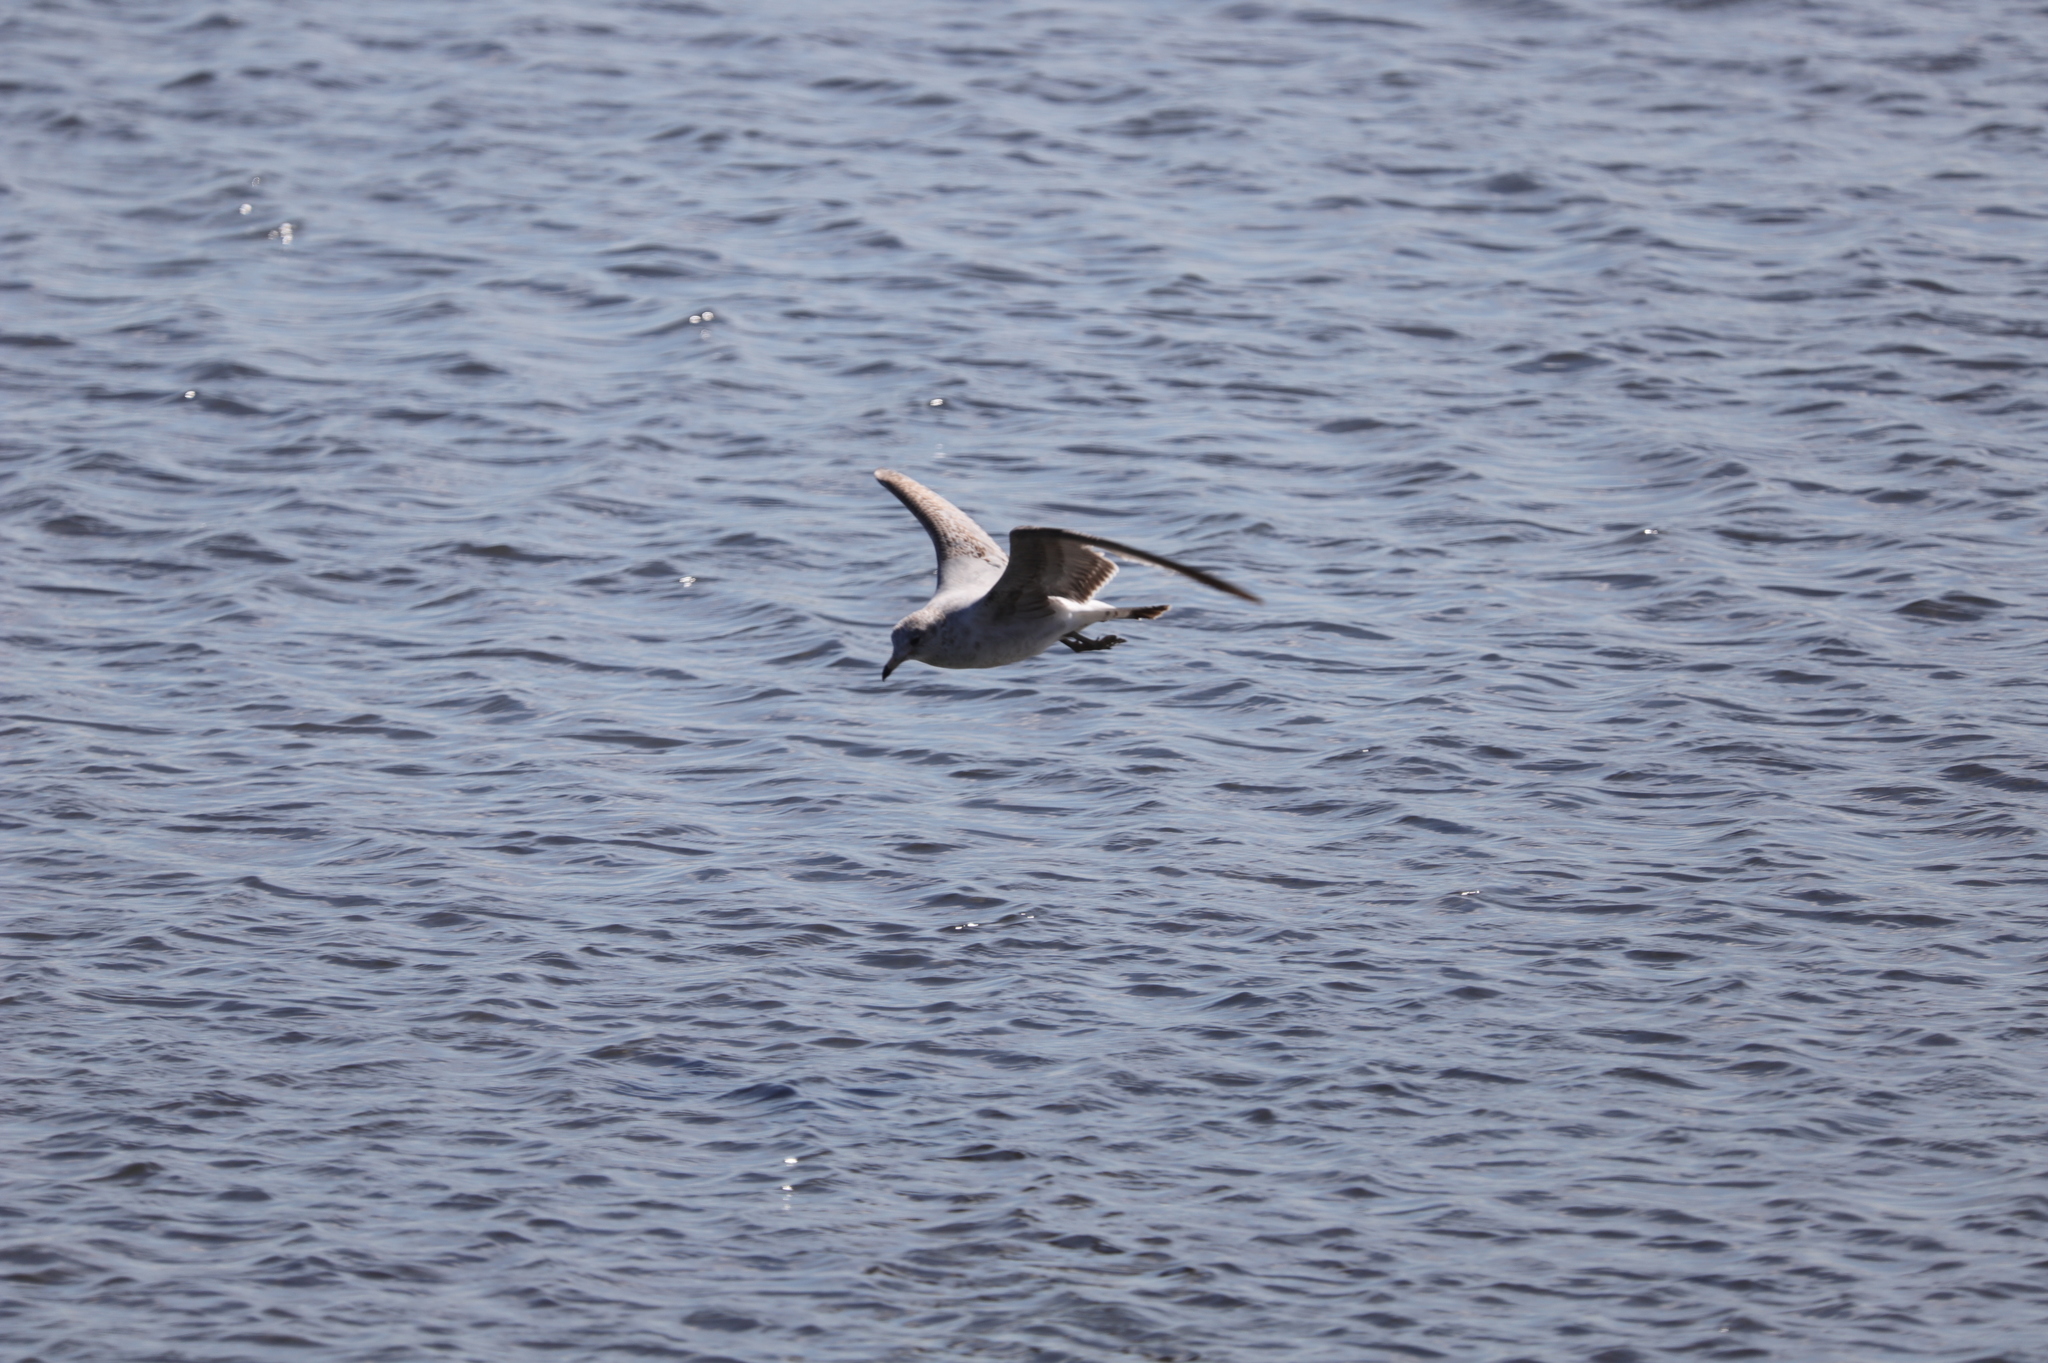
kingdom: Animalia
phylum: Chordata
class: Aves
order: Charadriiformes
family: Laridae
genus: Larus
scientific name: Larus delawarensis
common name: Ring-billed gull
